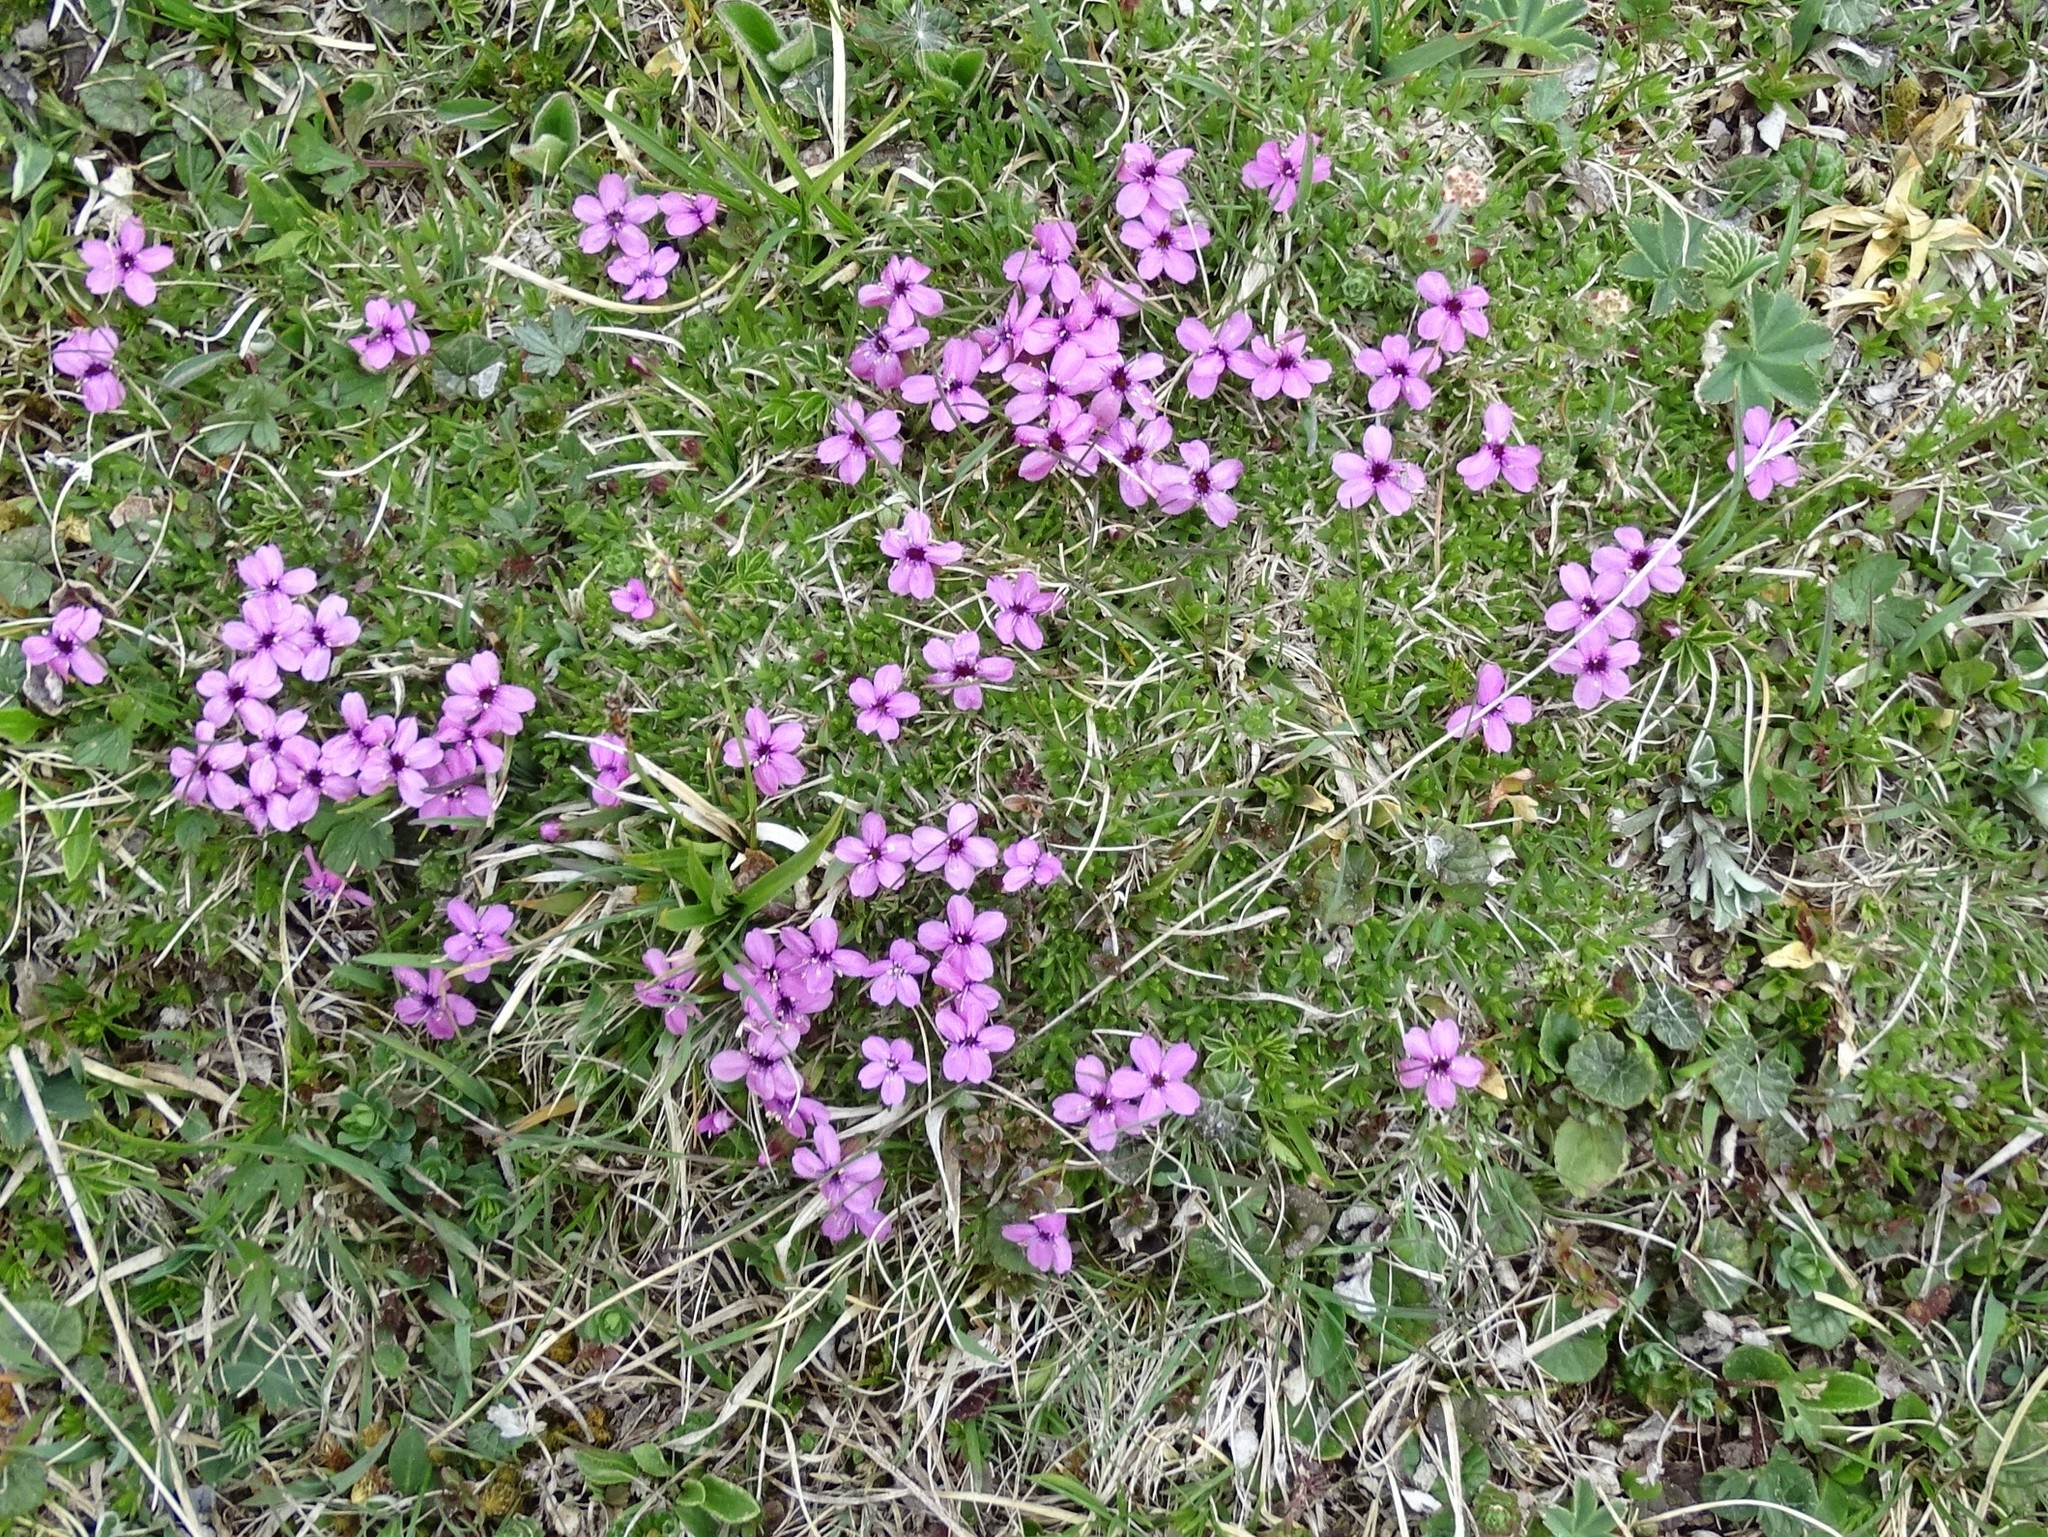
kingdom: Plantae
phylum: Tracheophyta
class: Magnoliopsida
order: Caryophyllales
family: Caryophyllaceae
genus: Silene
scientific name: Silene acaulis
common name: Moss campion
